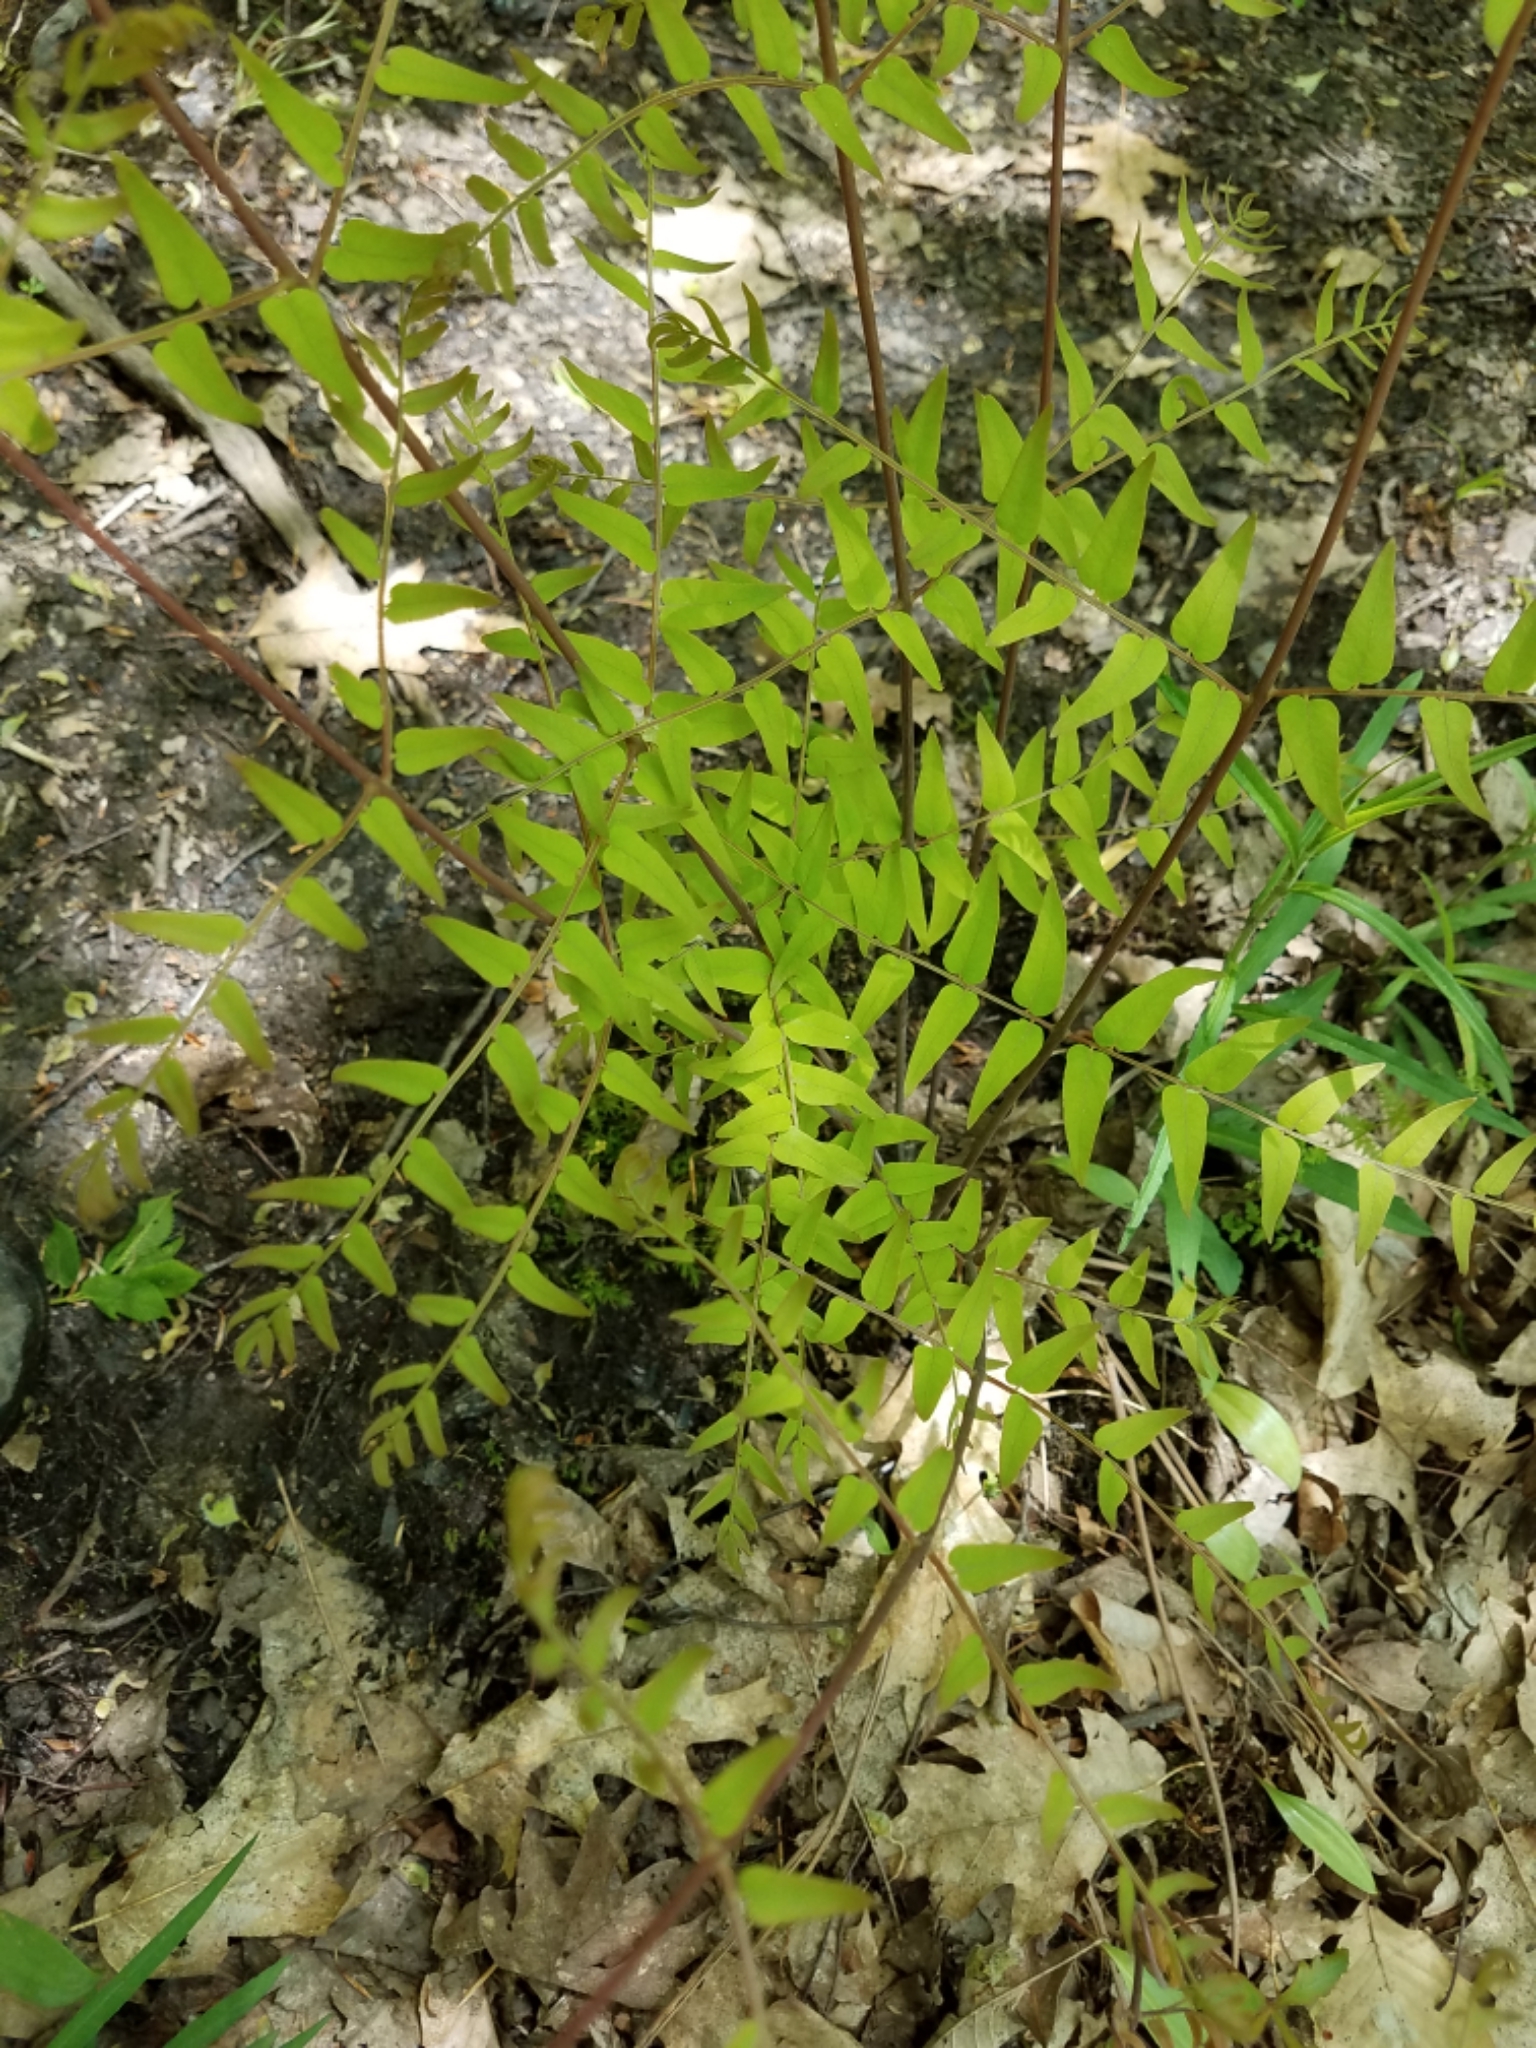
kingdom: Plantae
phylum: Tracheophyta
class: Polypodiopsida
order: Osmundales
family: Osmundaceae
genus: Osmunda
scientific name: Osmunda spectabilis
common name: American royal fern
